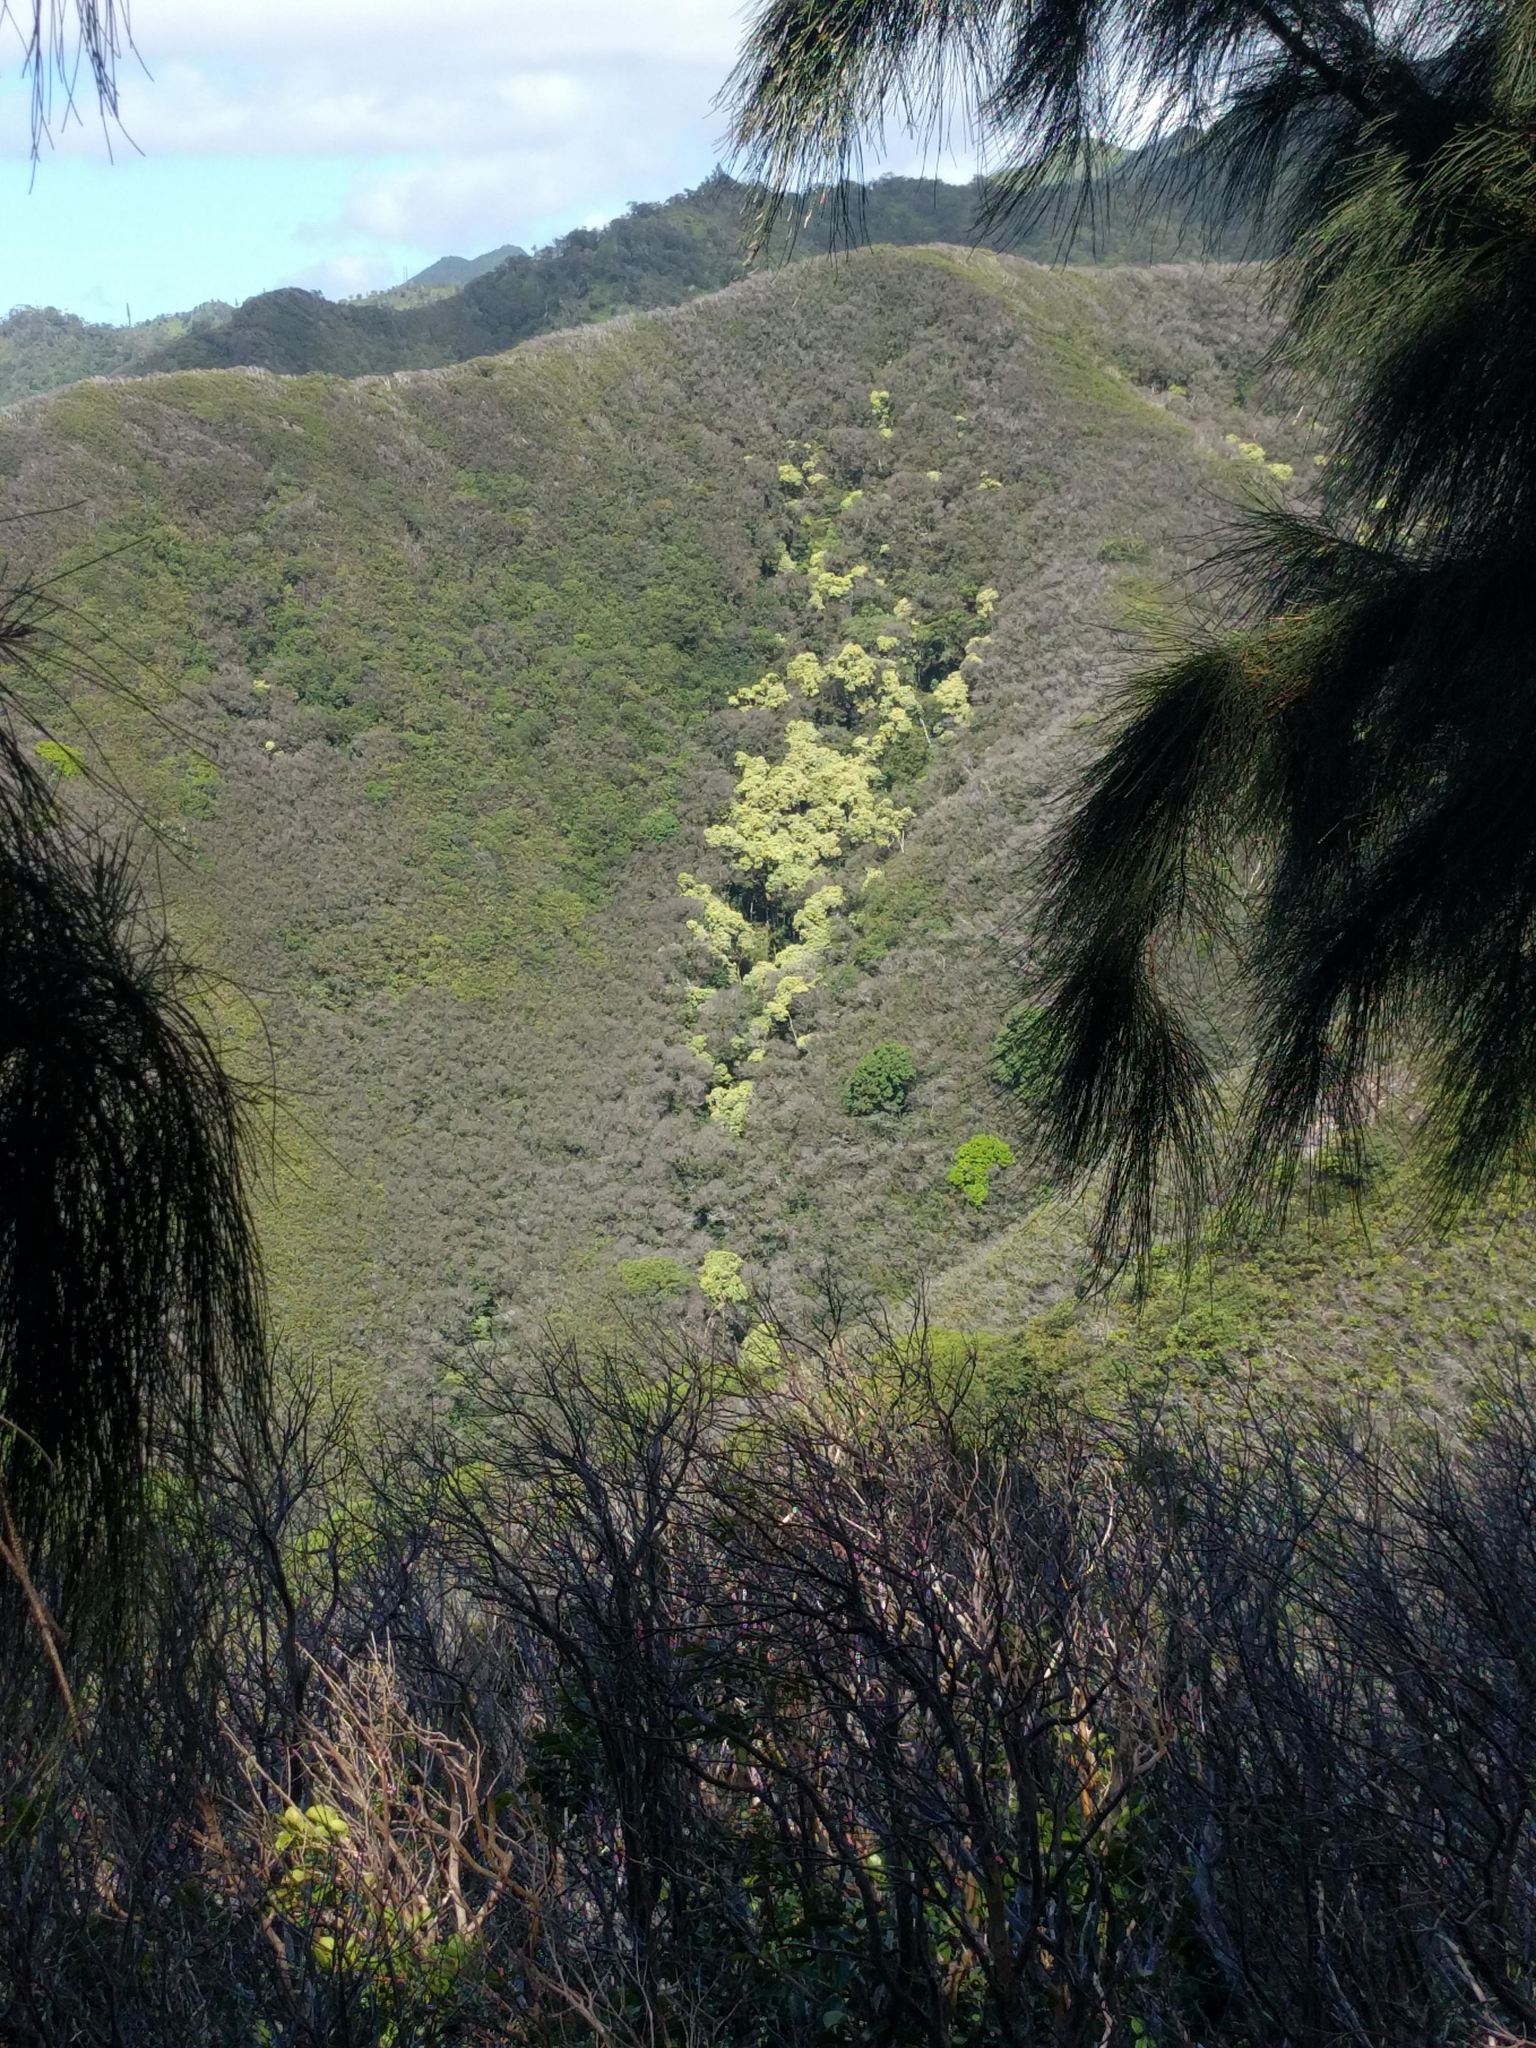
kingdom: Plantae
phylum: Tracheophyta
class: Magnoliopsida
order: Malpighiales
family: Euphorbiaceae
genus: Aleurites
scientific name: Aleurites moluccanus
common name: Candlenut tree
